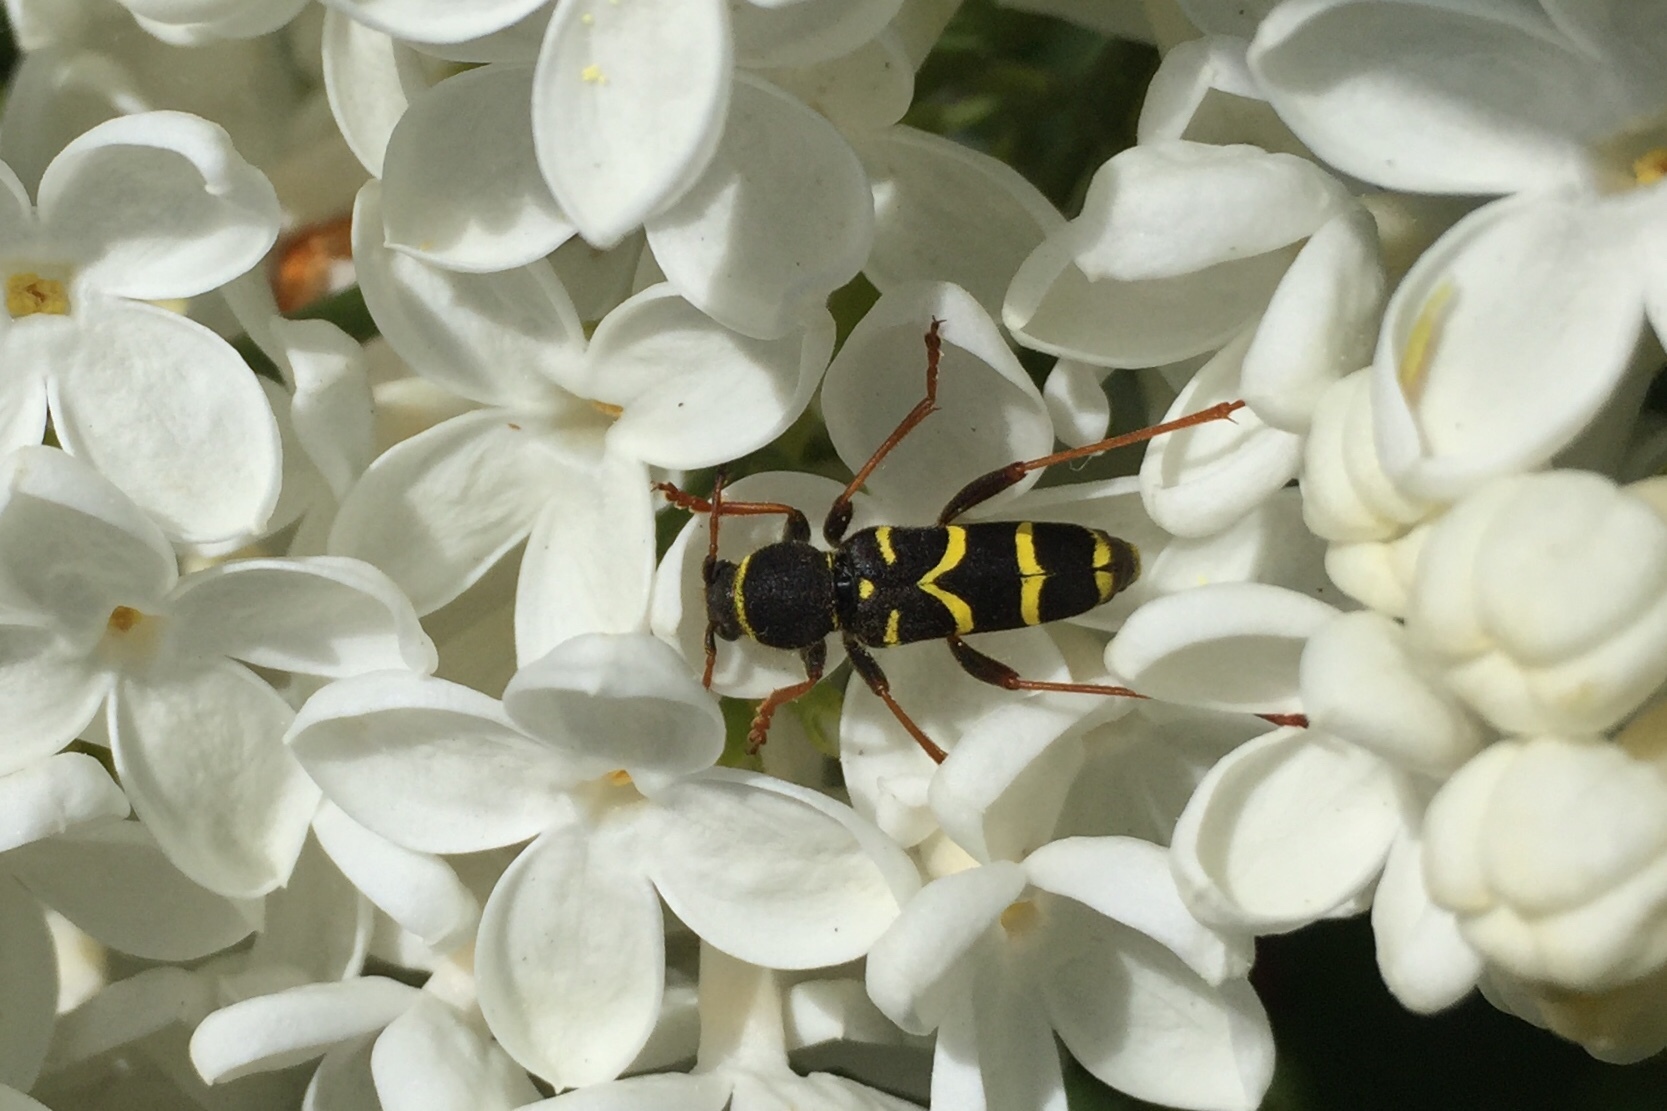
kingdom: Animalia
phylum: Arthropoda
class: Insecta
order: Coleoptera
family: Cerambycidae
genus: Clytus
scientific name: Clytus arietis
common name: Wasp beetle
